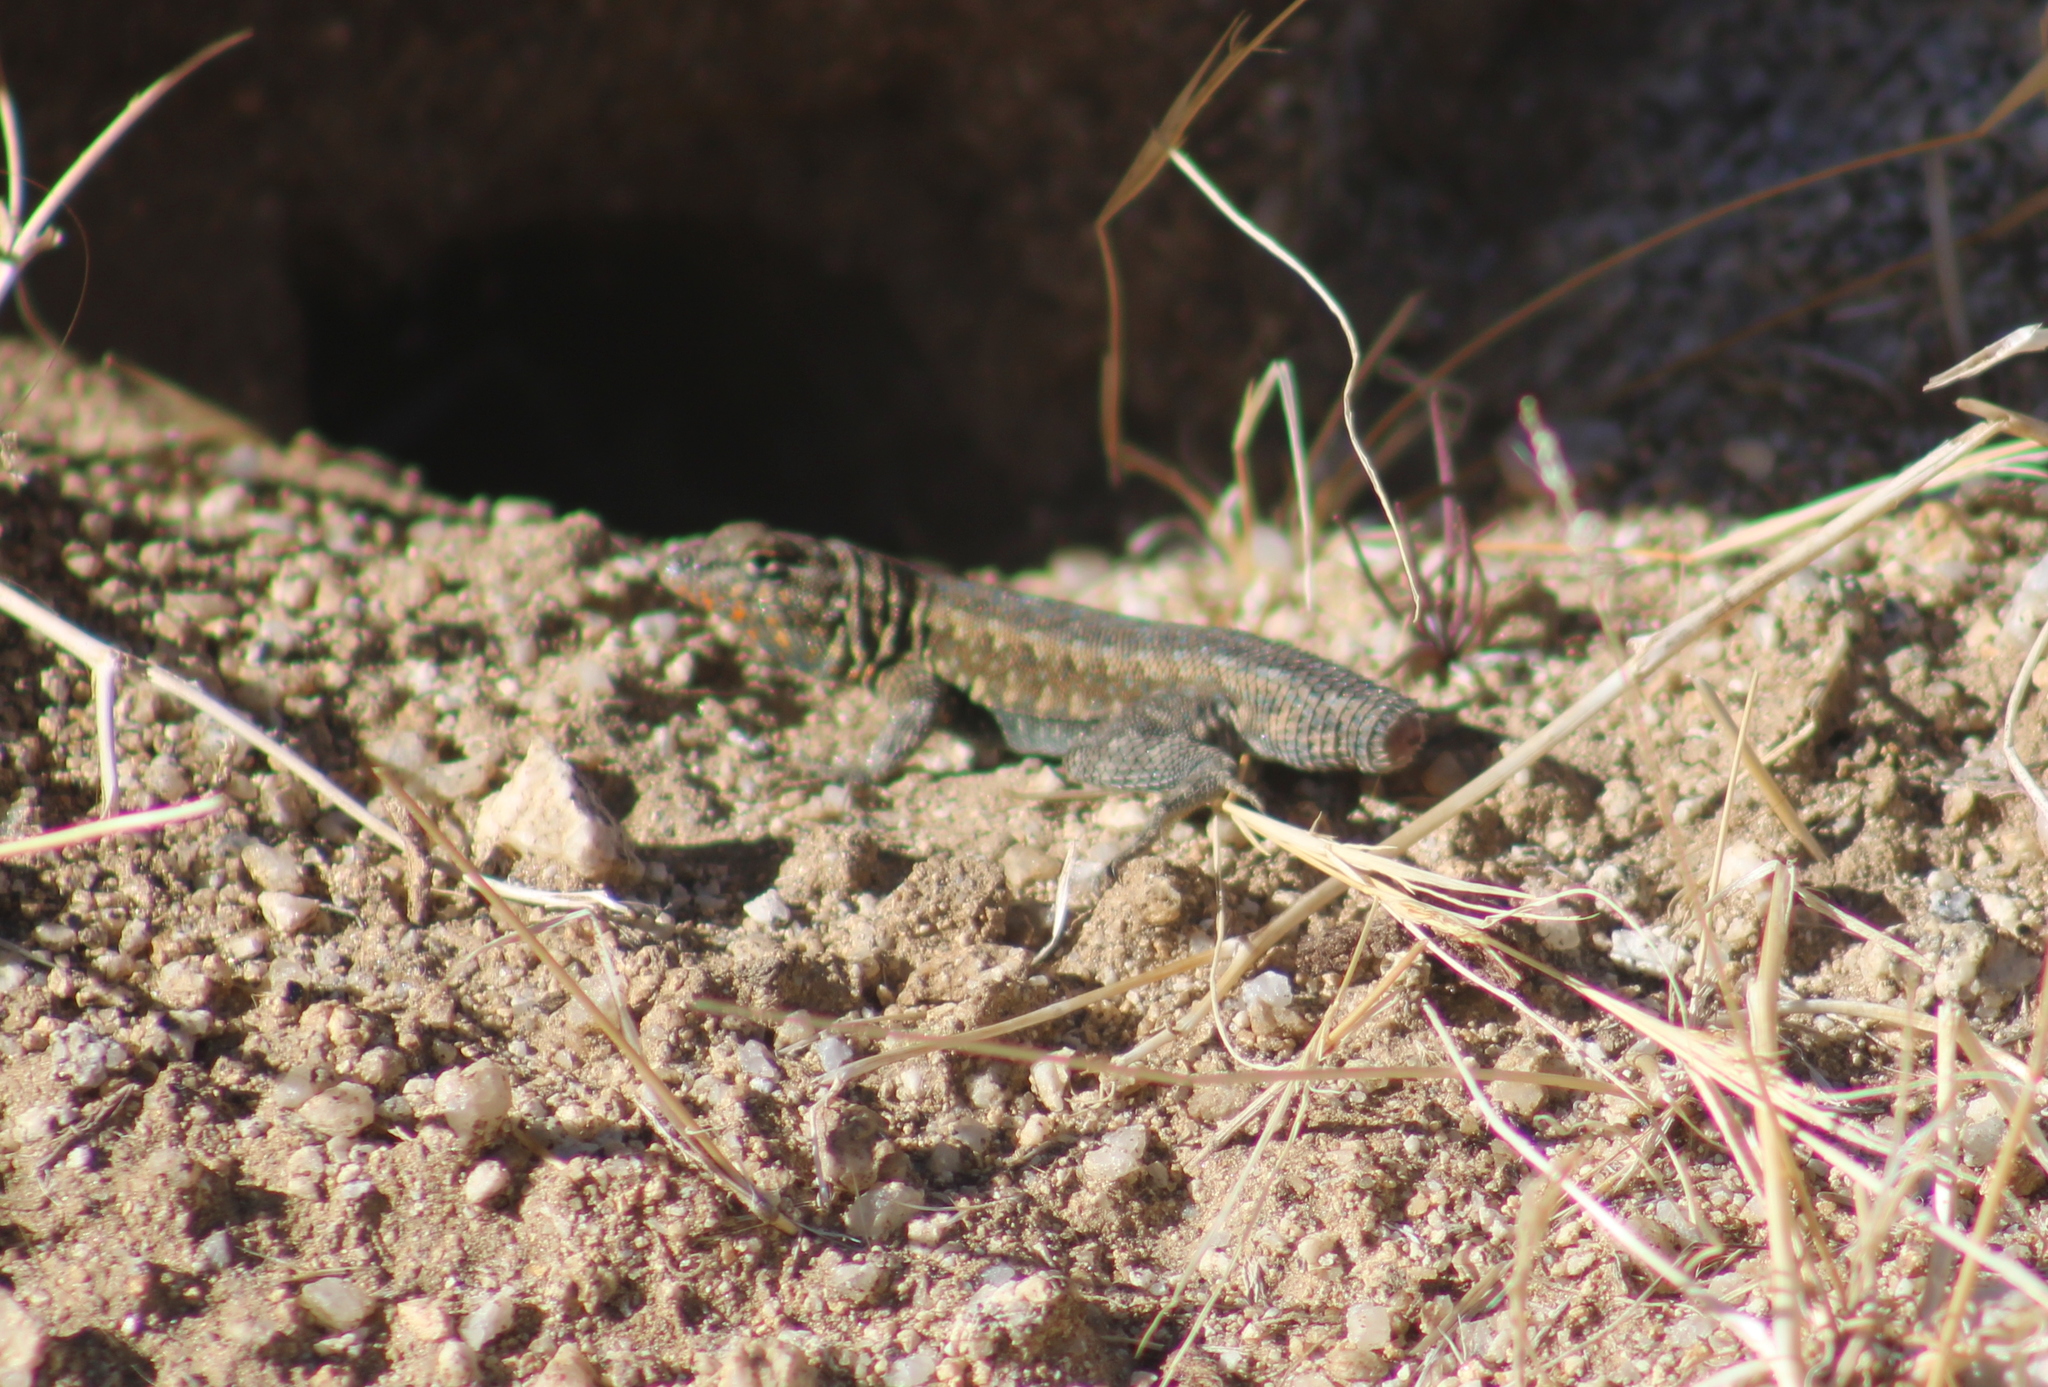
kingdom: Animalia
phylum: Chordata
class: Squamata
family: Phrynosomatidae
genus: Uta
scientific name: Uta stansburiana
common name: Side-blotched lizard
